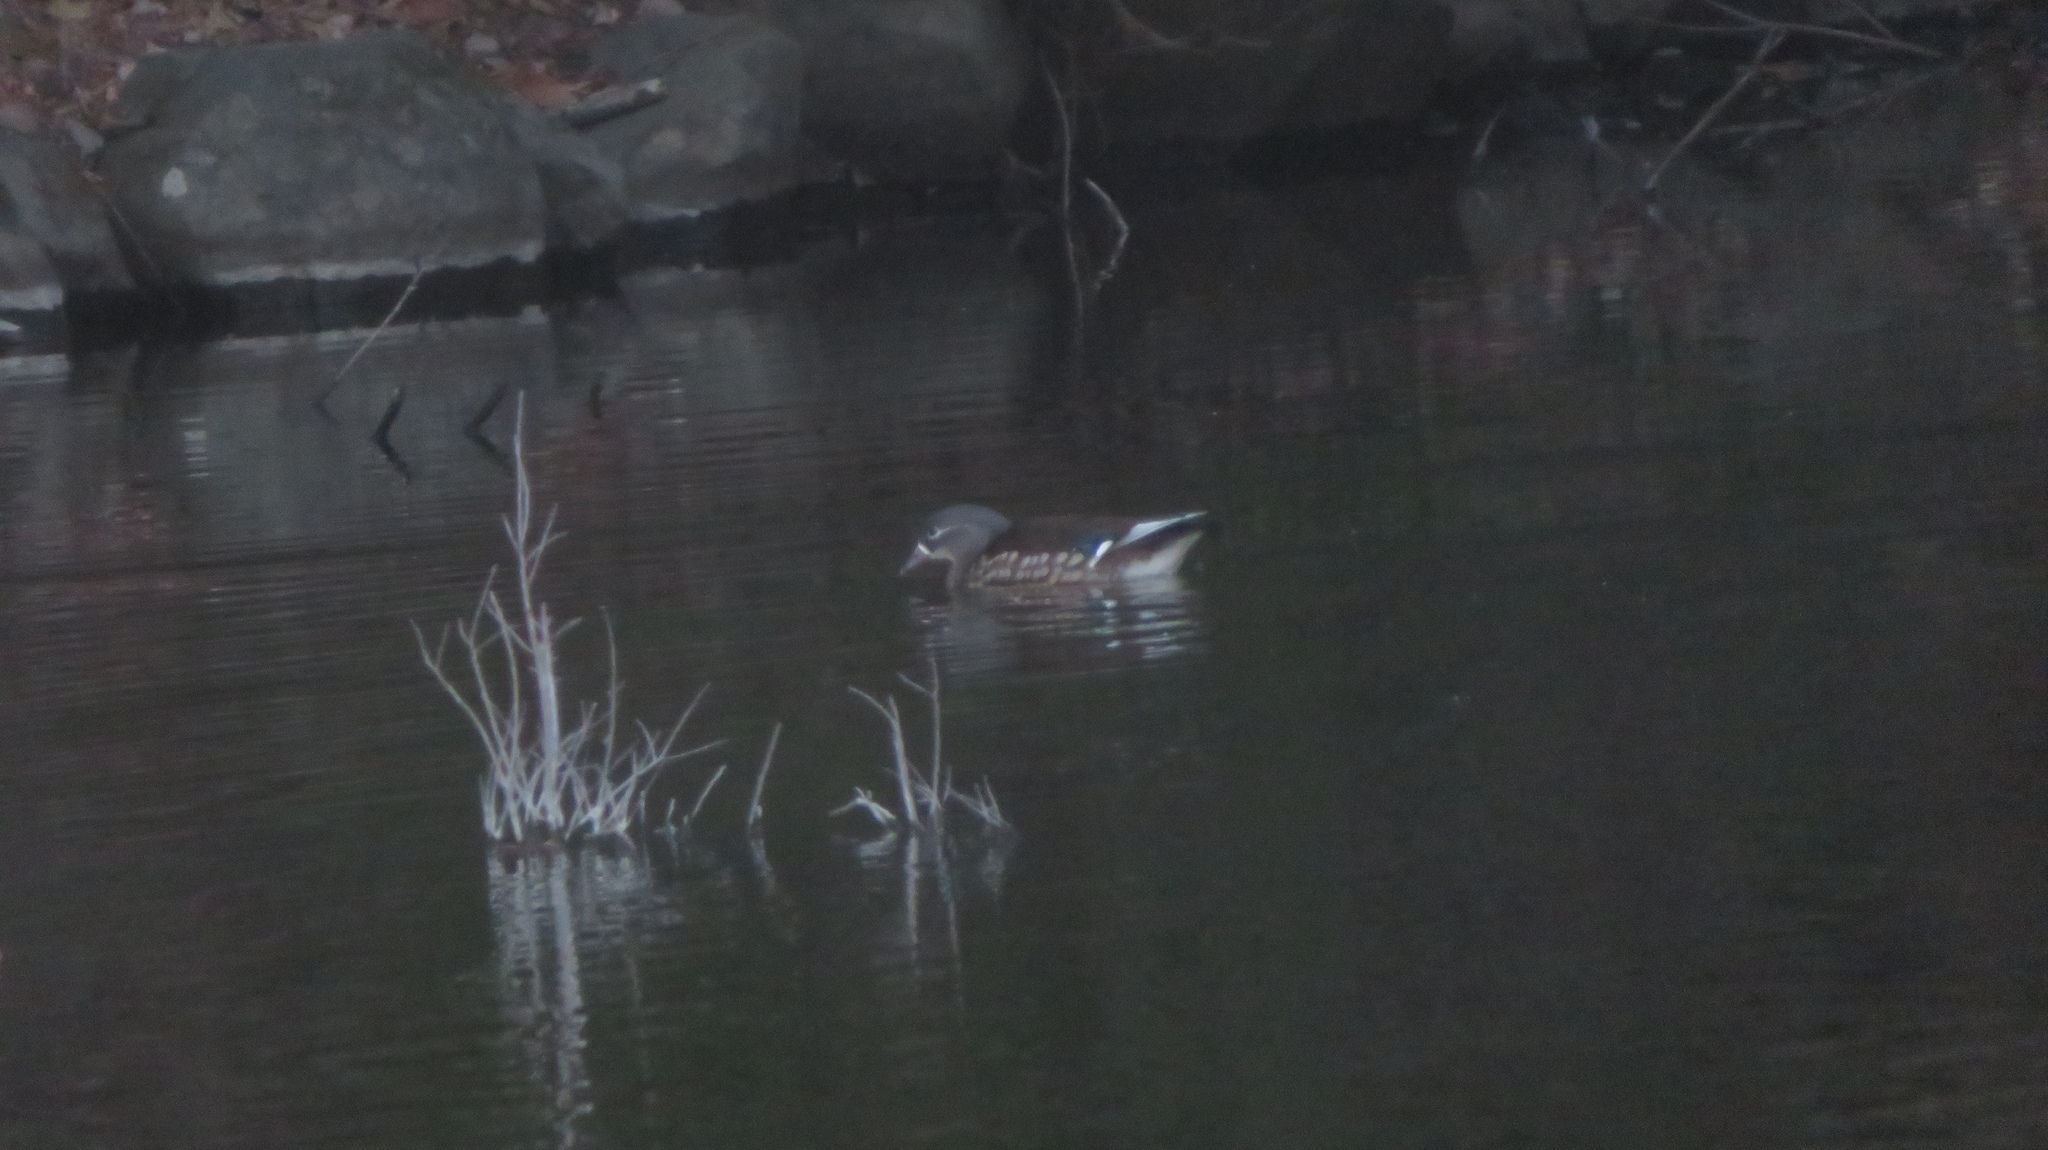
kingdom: Animalia
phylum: Chordata
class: Aves
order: Anseriformes
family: Anatidae
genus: Aix
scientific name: Aix galericulata
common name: Mandarin duck
